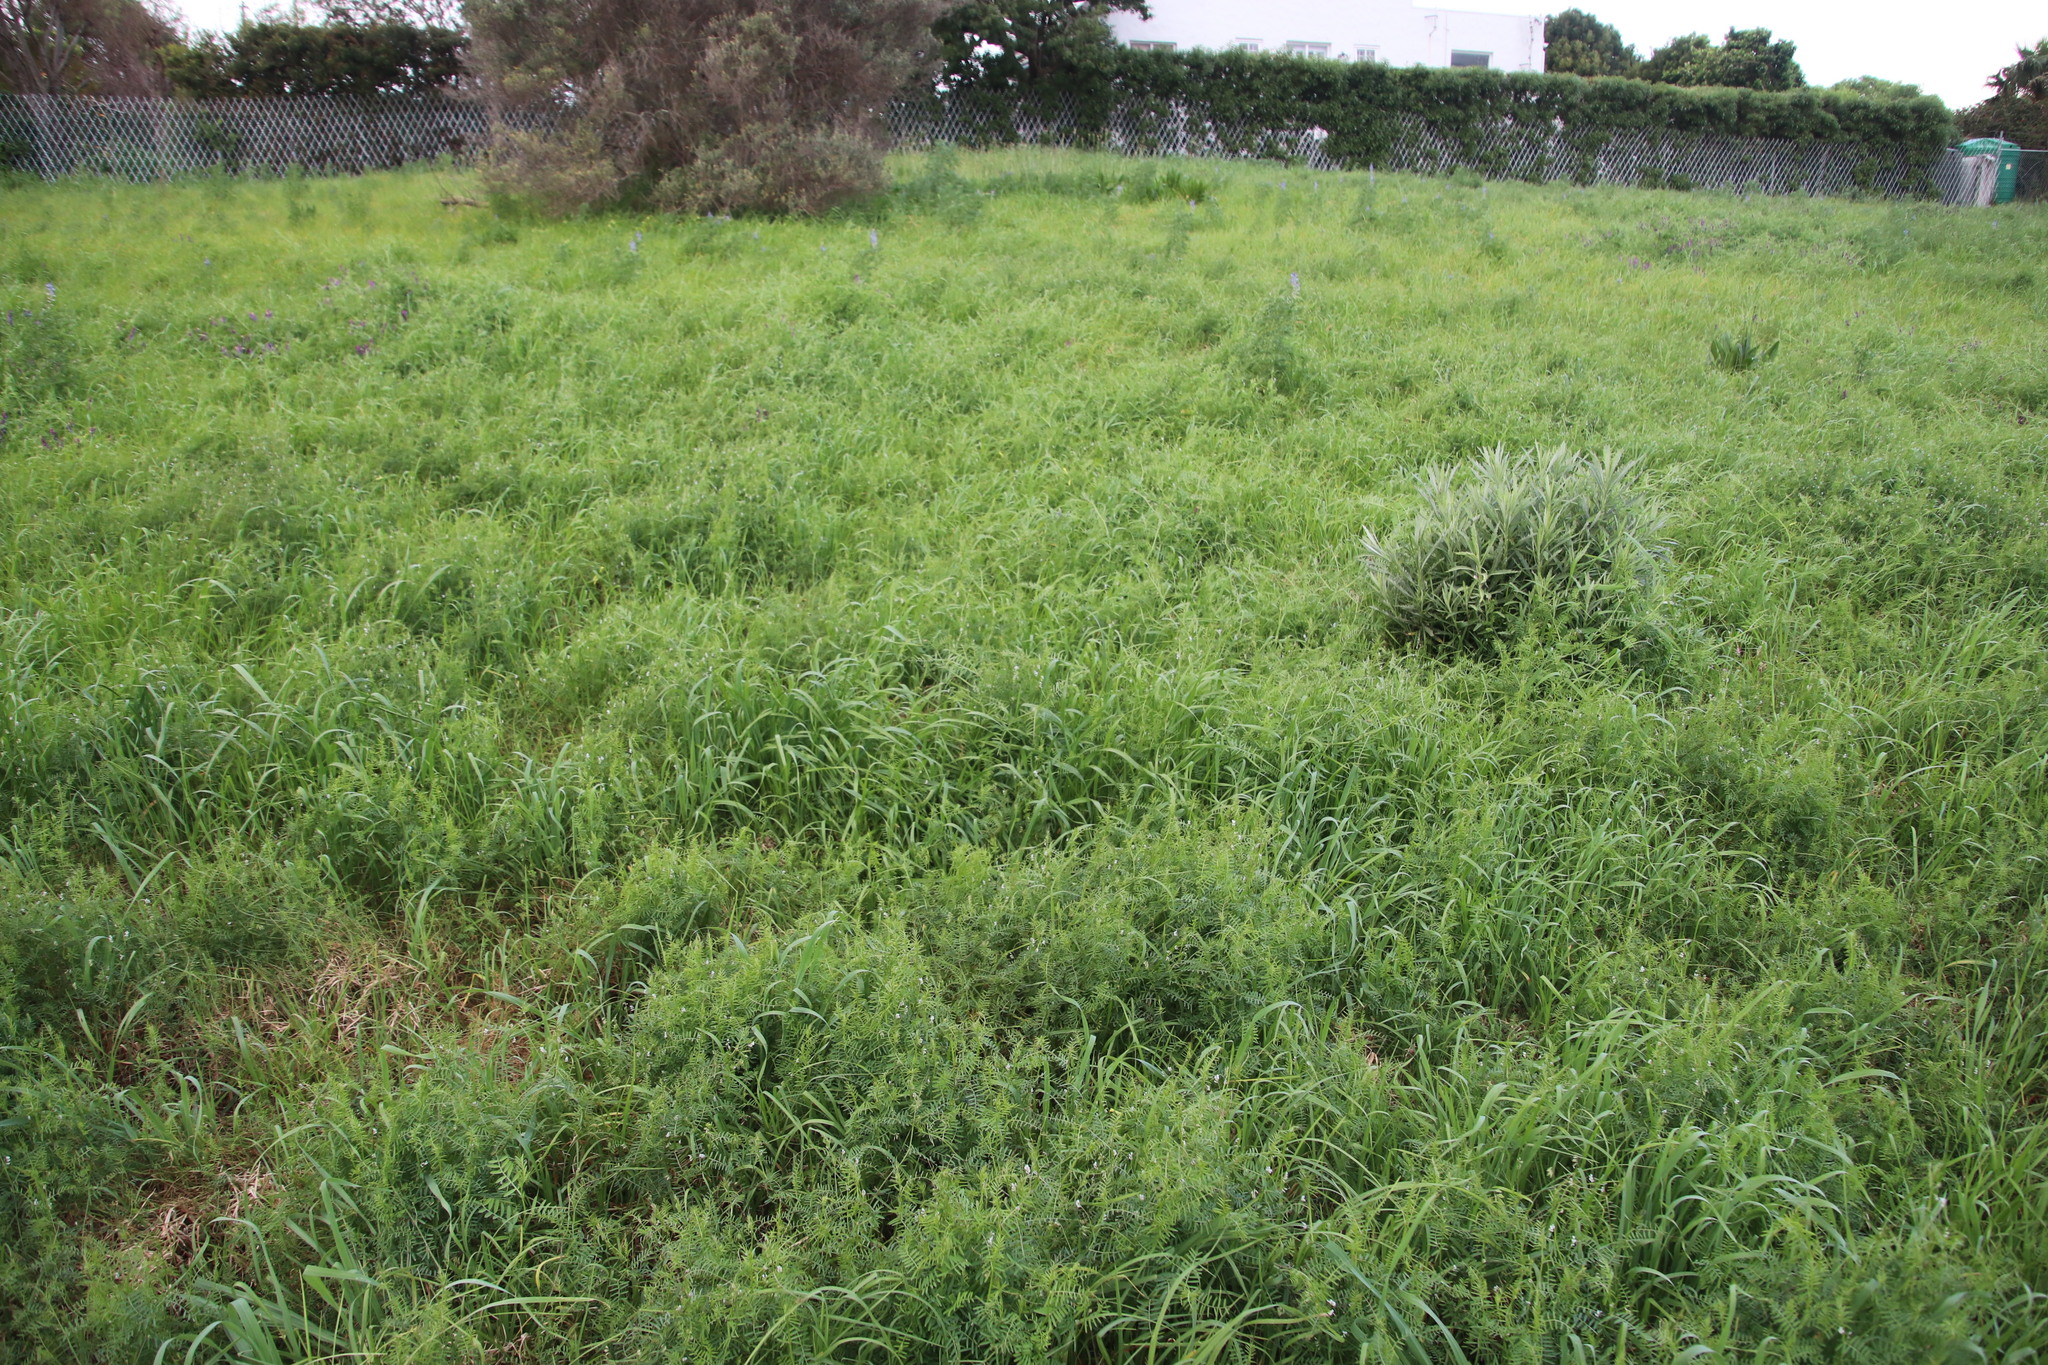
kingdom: Plantae
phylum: Tracheophyta
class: Magnoliopsida
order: Fabales
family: Fabaceae
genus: Vicia
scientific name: Vicia hirsuta
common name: Tiny vetch
